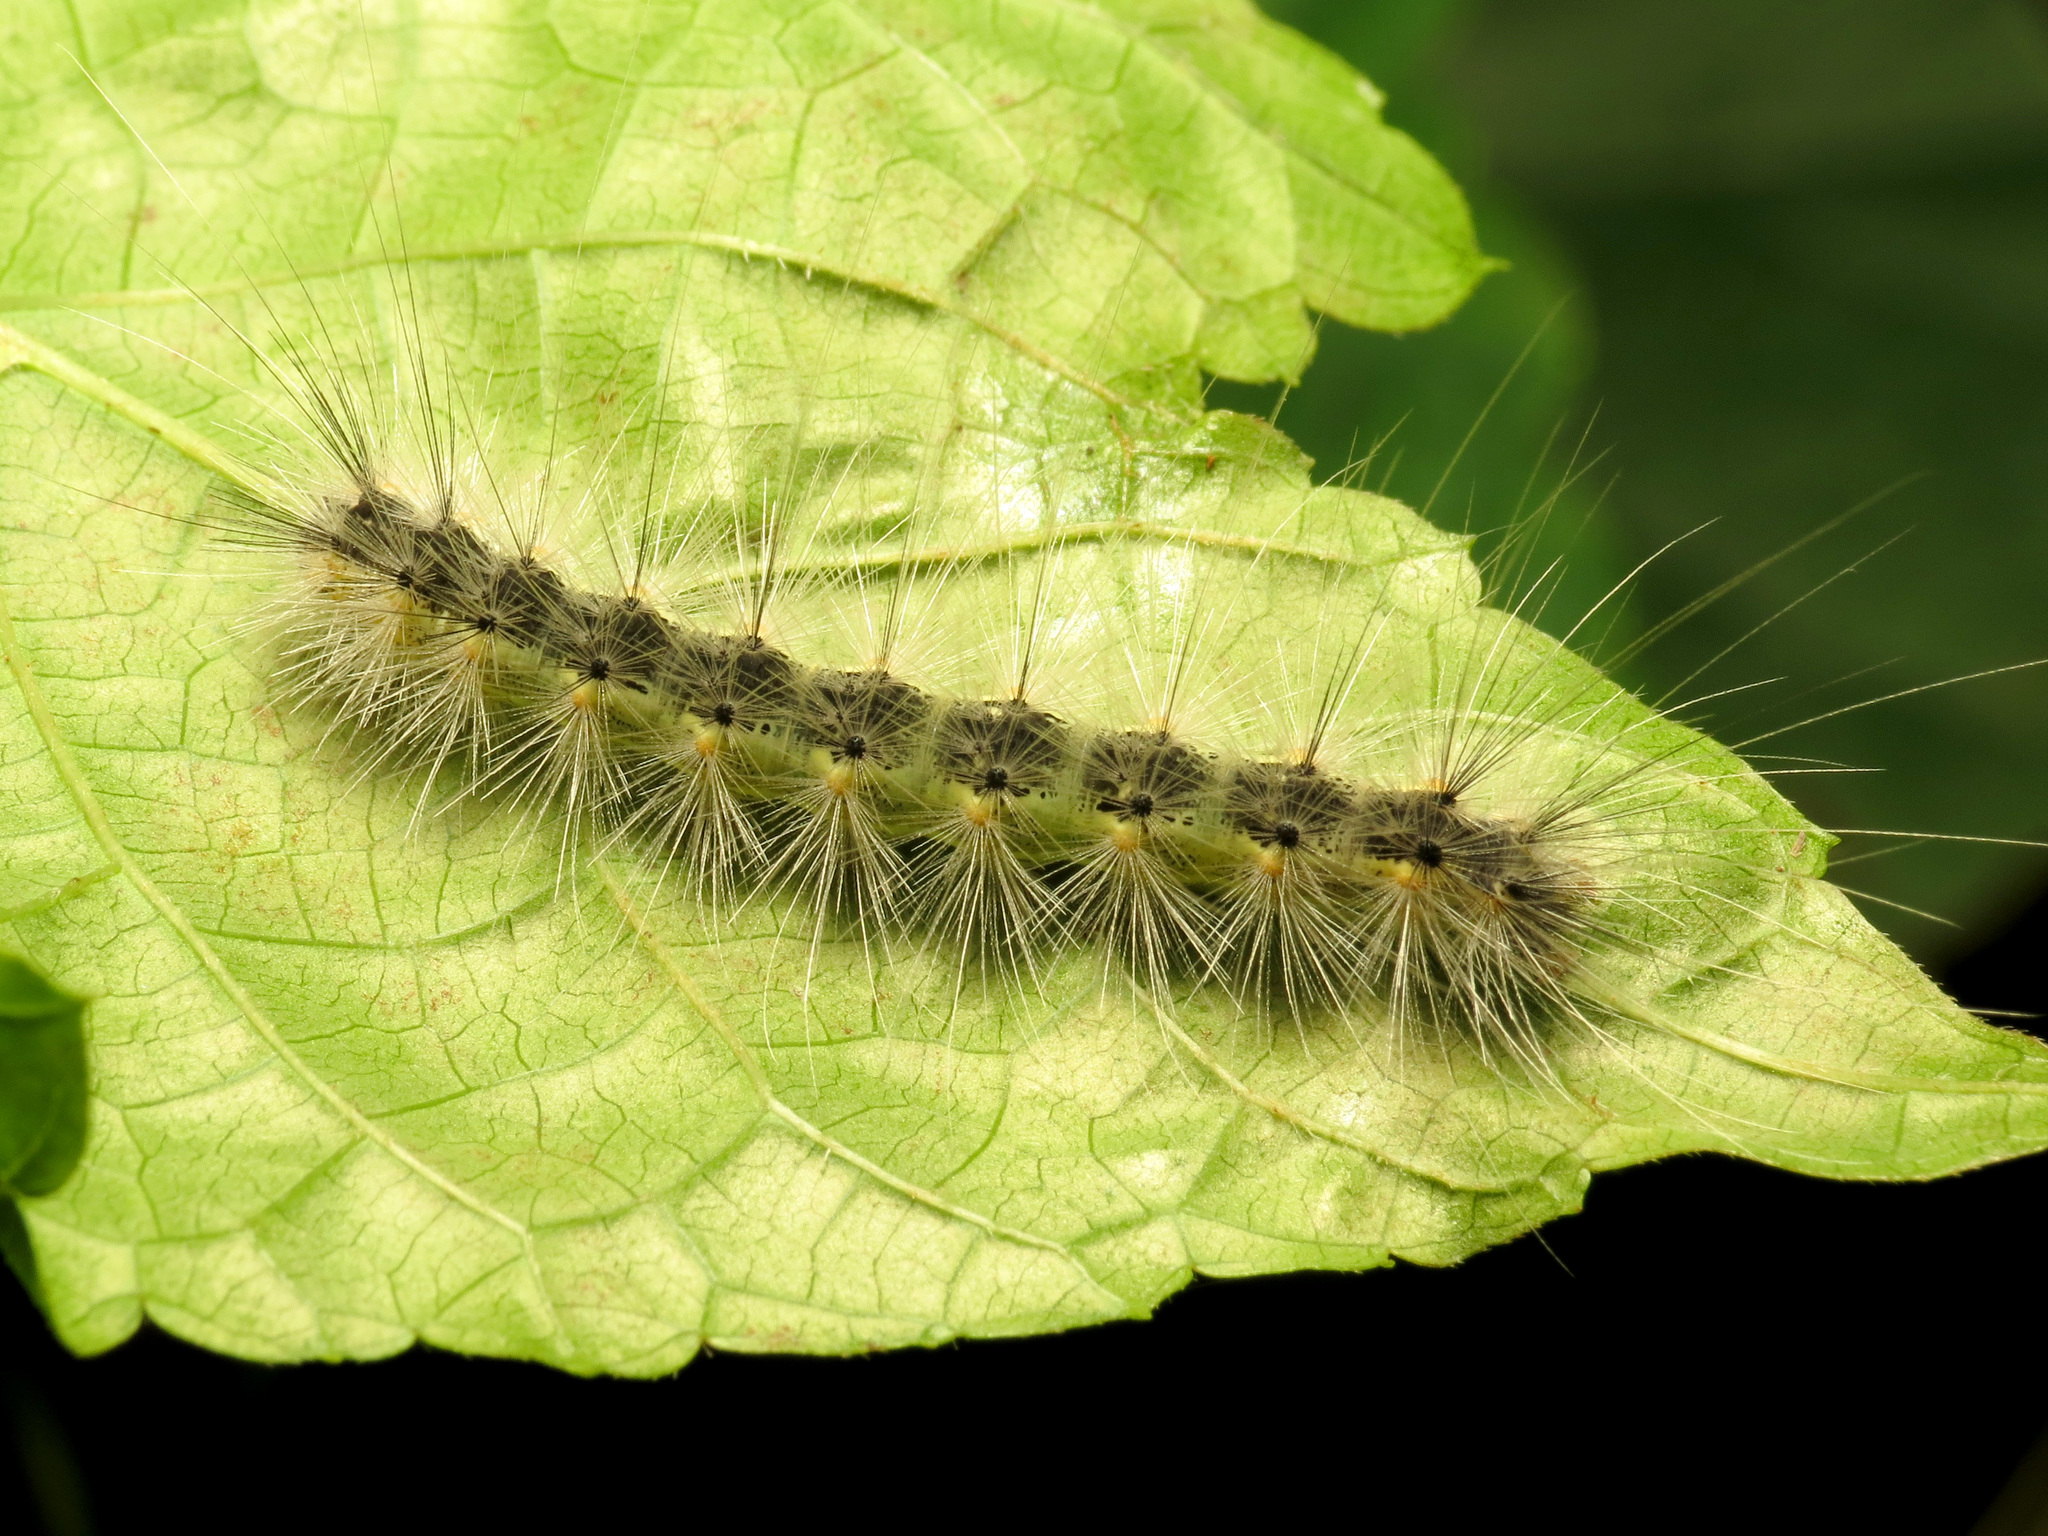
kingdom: Animalia
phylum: Arthropoda
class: Insecta
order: Lepidoptera
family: Erebidae
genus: Hyphantria
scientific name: Hyphantria cunea
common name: American white moth
